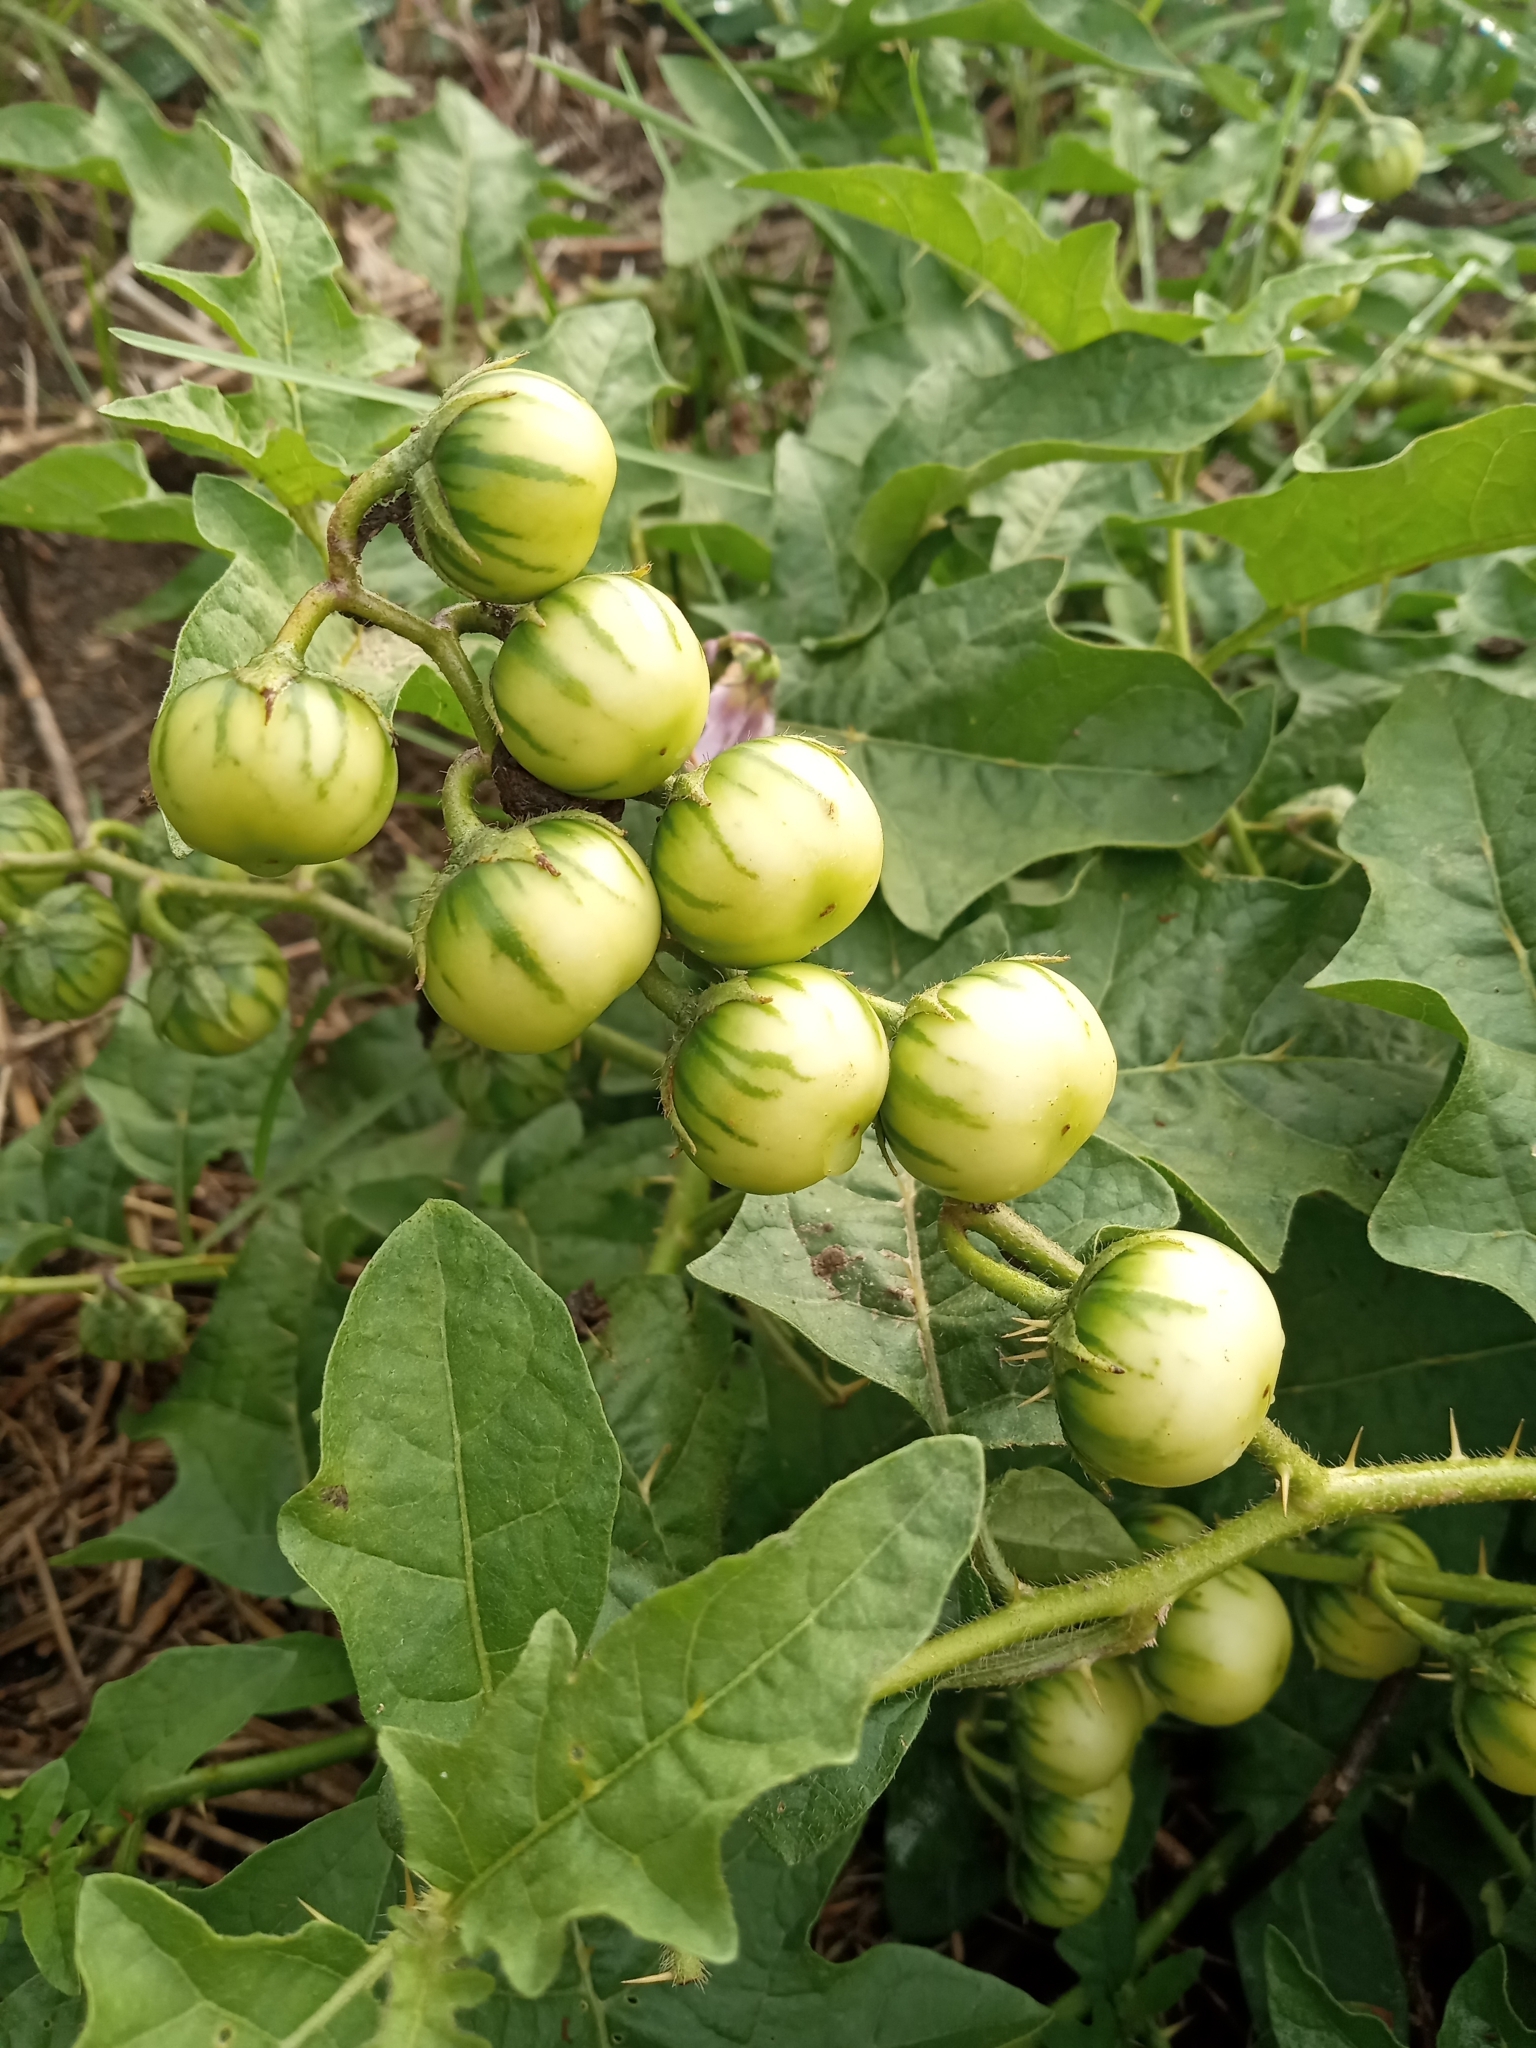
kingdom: Plantae
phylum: Tracheophyta
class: Magnoliopsida
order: Solanales
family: Solanaceae
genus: Solanum
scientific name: Solanum carolinense
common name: Horse-nettle
